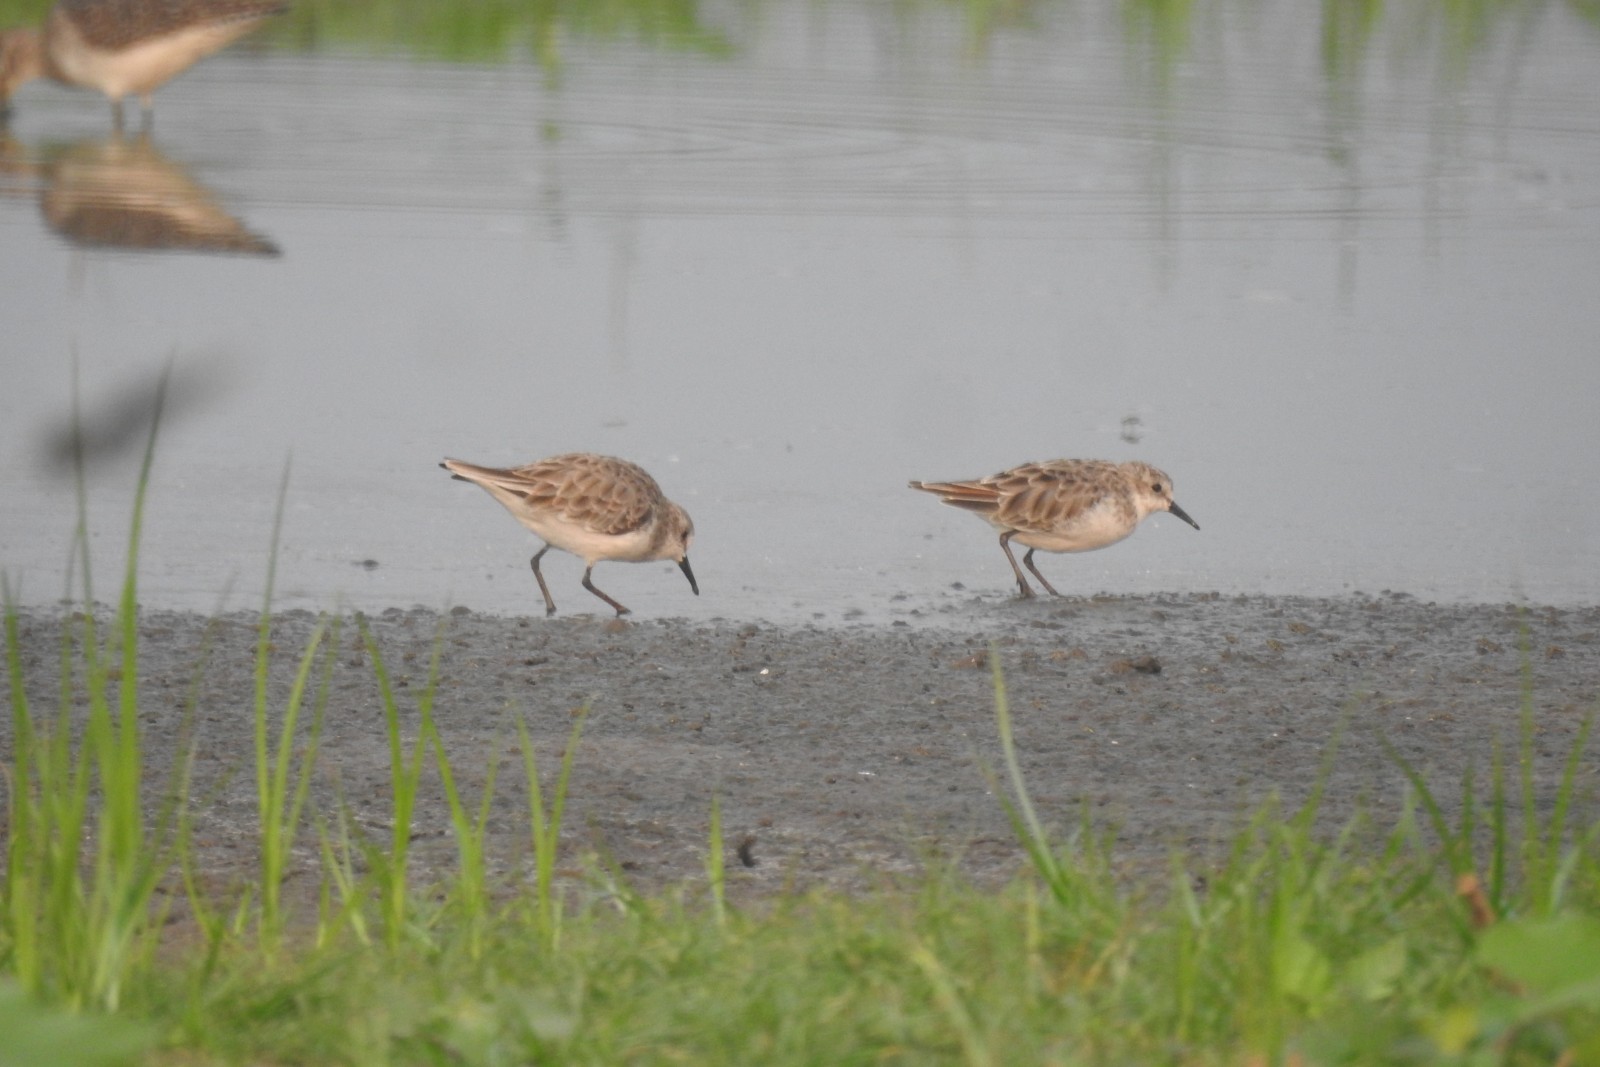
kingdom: Animalia
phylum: Chordata
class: Aves
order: Charadriiformes
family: Scolopacidae
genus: Calidris
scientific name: Calidris minuta
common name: Little stint
